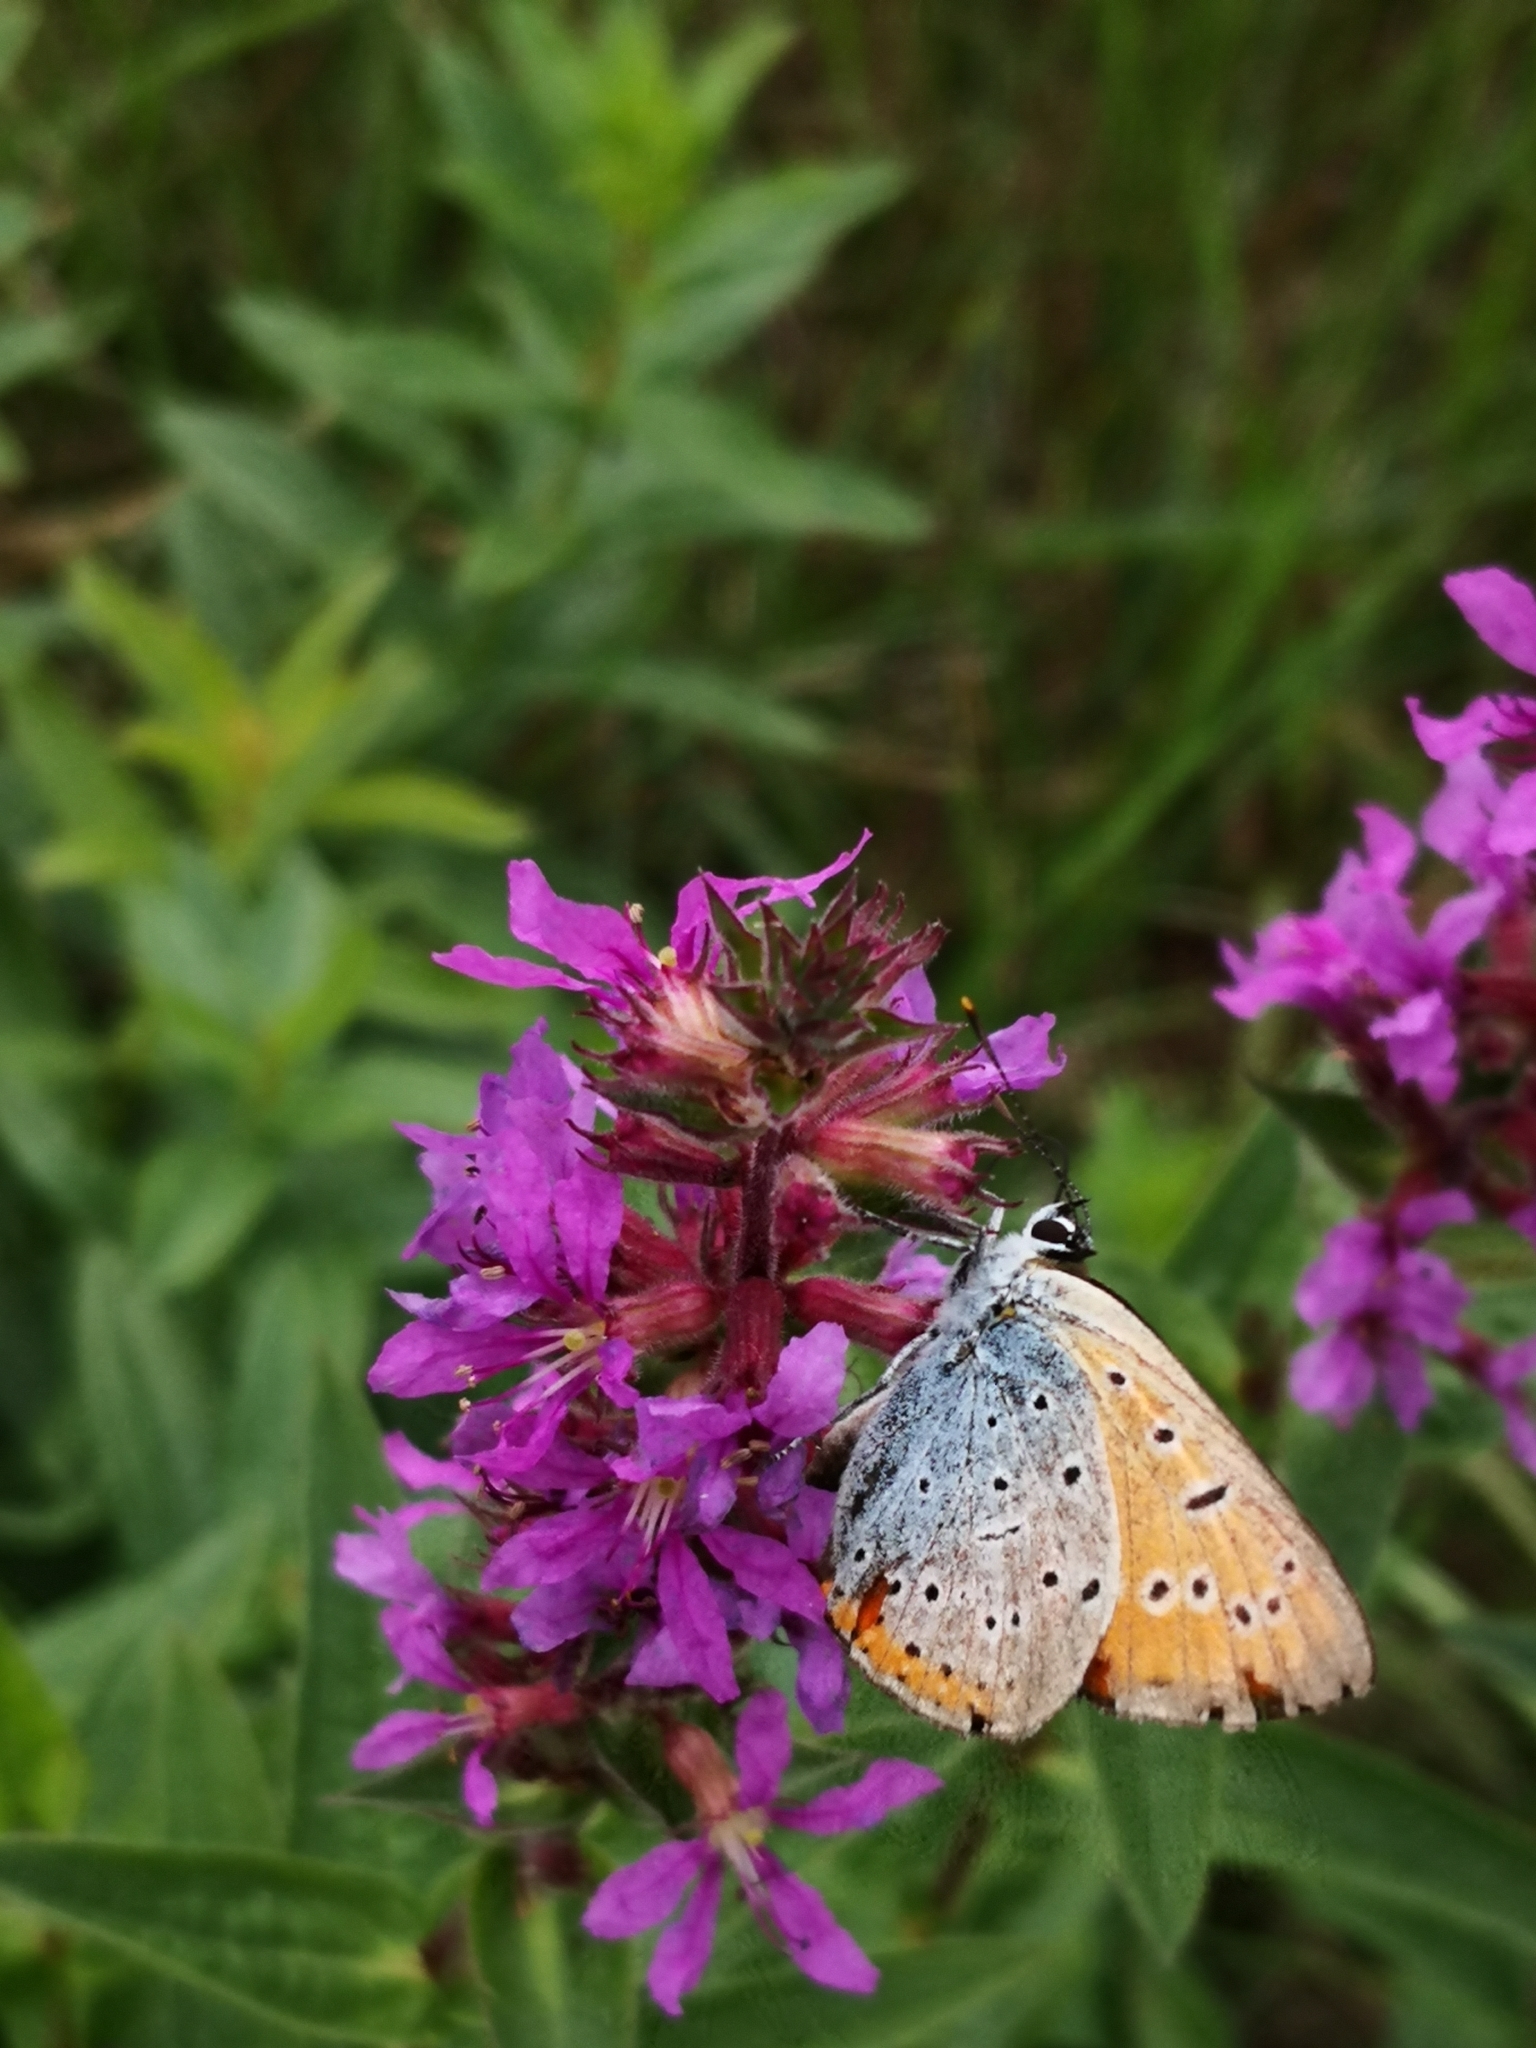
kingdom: Animalia
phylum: Arthropoda
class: Insecta
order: Lepidoptera
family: Lycaenidae
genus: Lycaena
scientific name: Lycaena dispar
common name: Large copper
